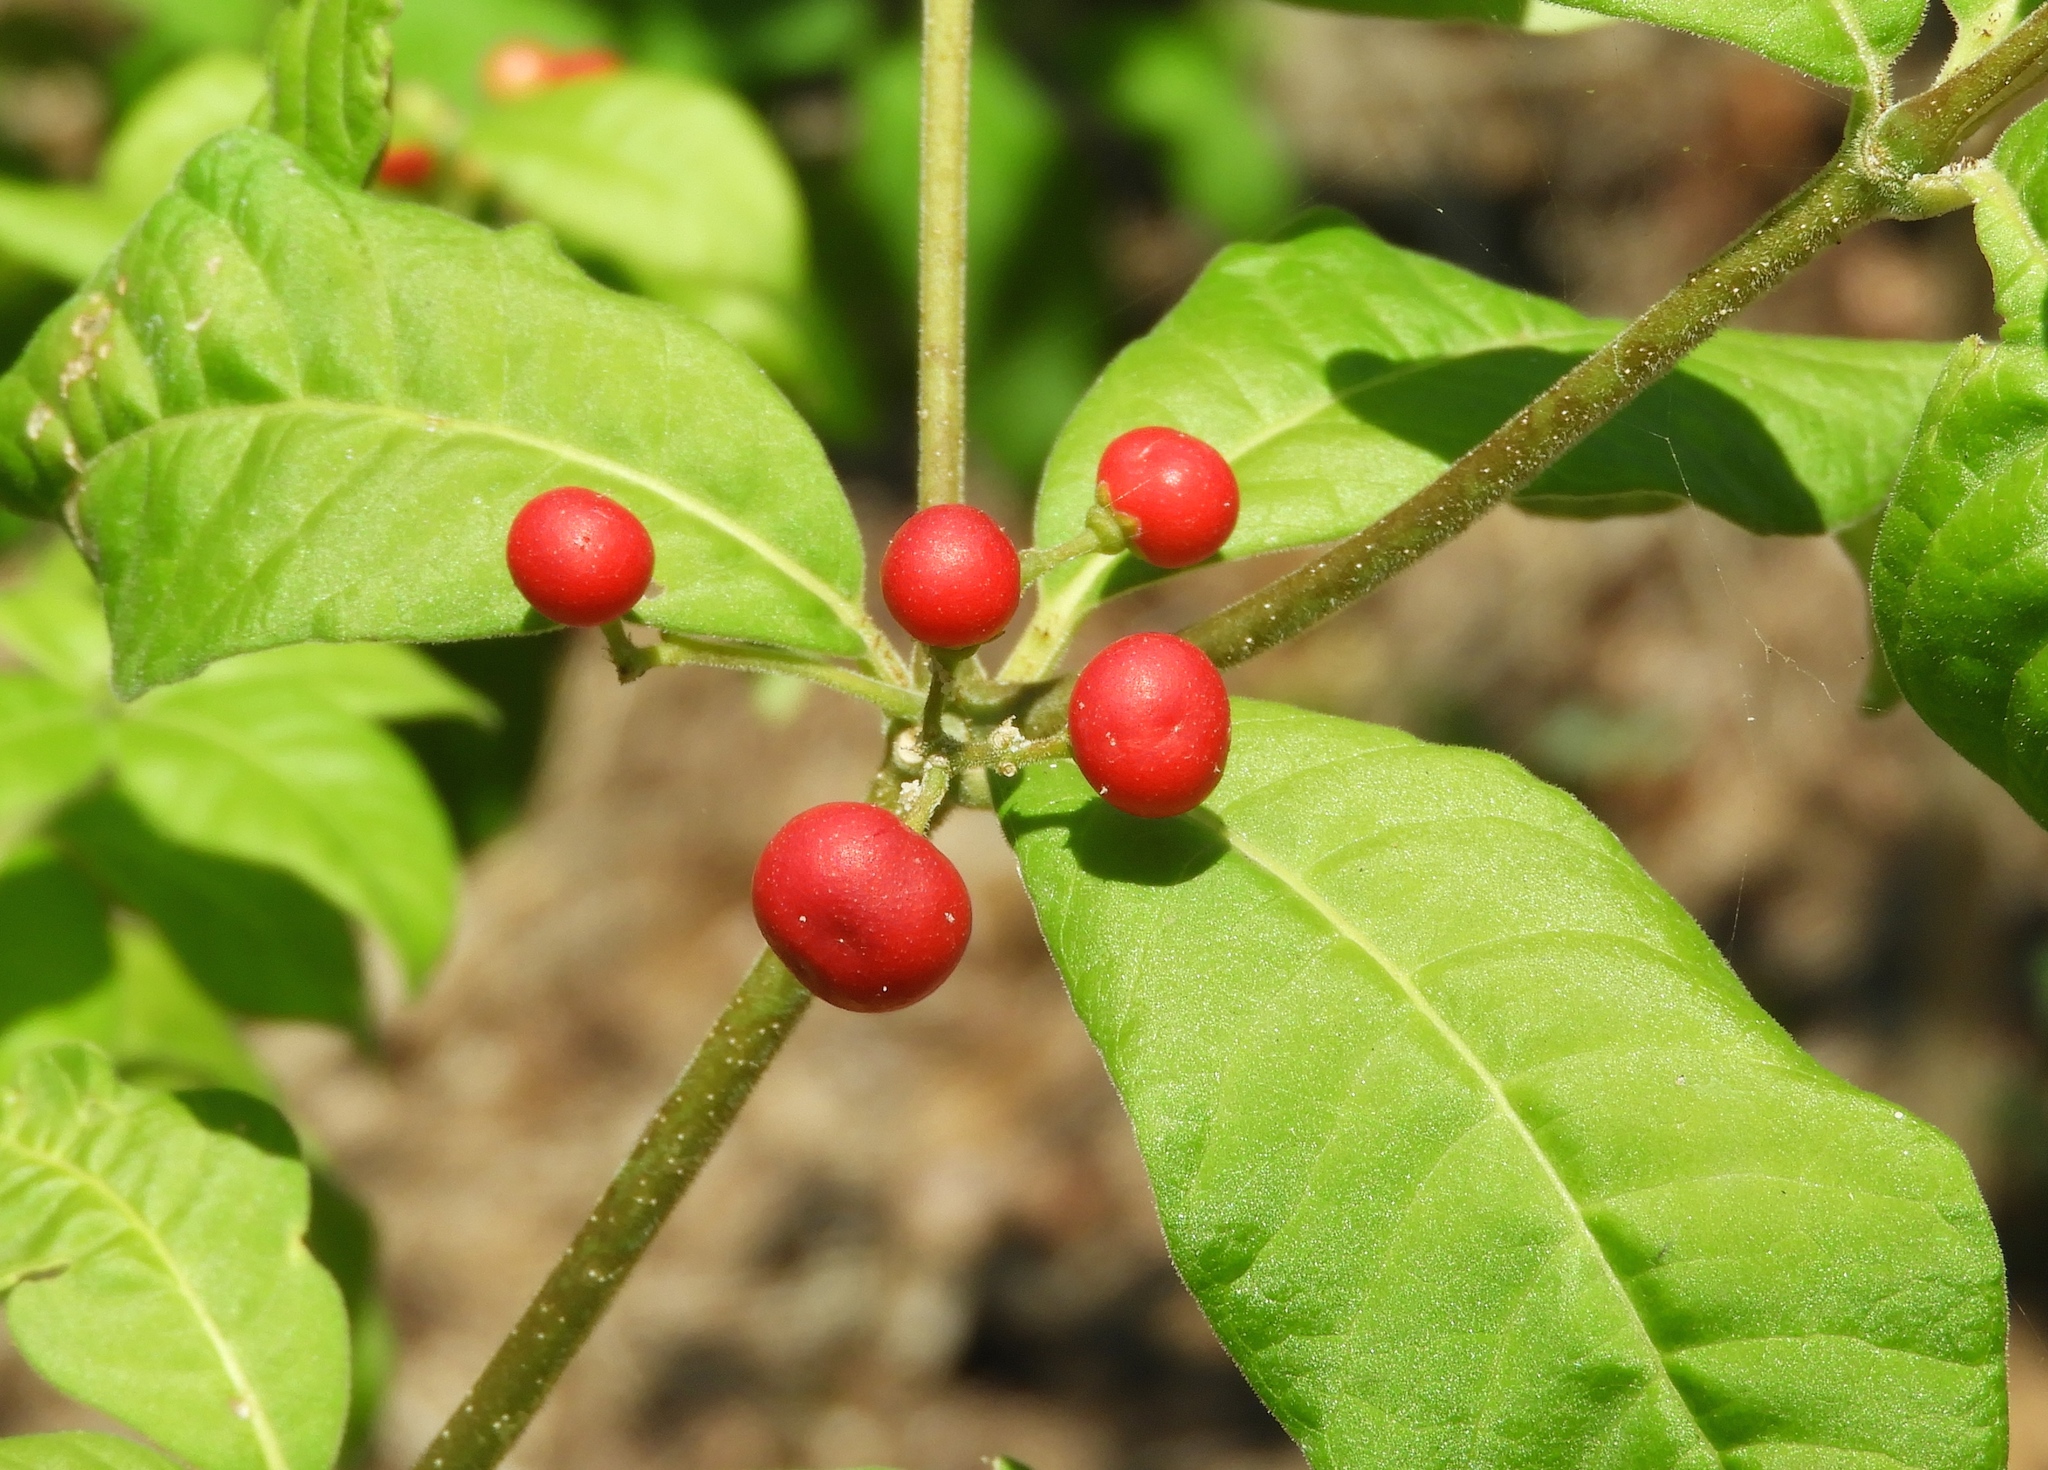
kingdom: Plantae
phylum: Tracheophyta
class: Magnoliopsida
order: Gentianales
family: Apocynaceae
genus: Rauvolfia
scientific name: Rauvolfia tetraphylla
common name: Four-leaf devil-pepper
